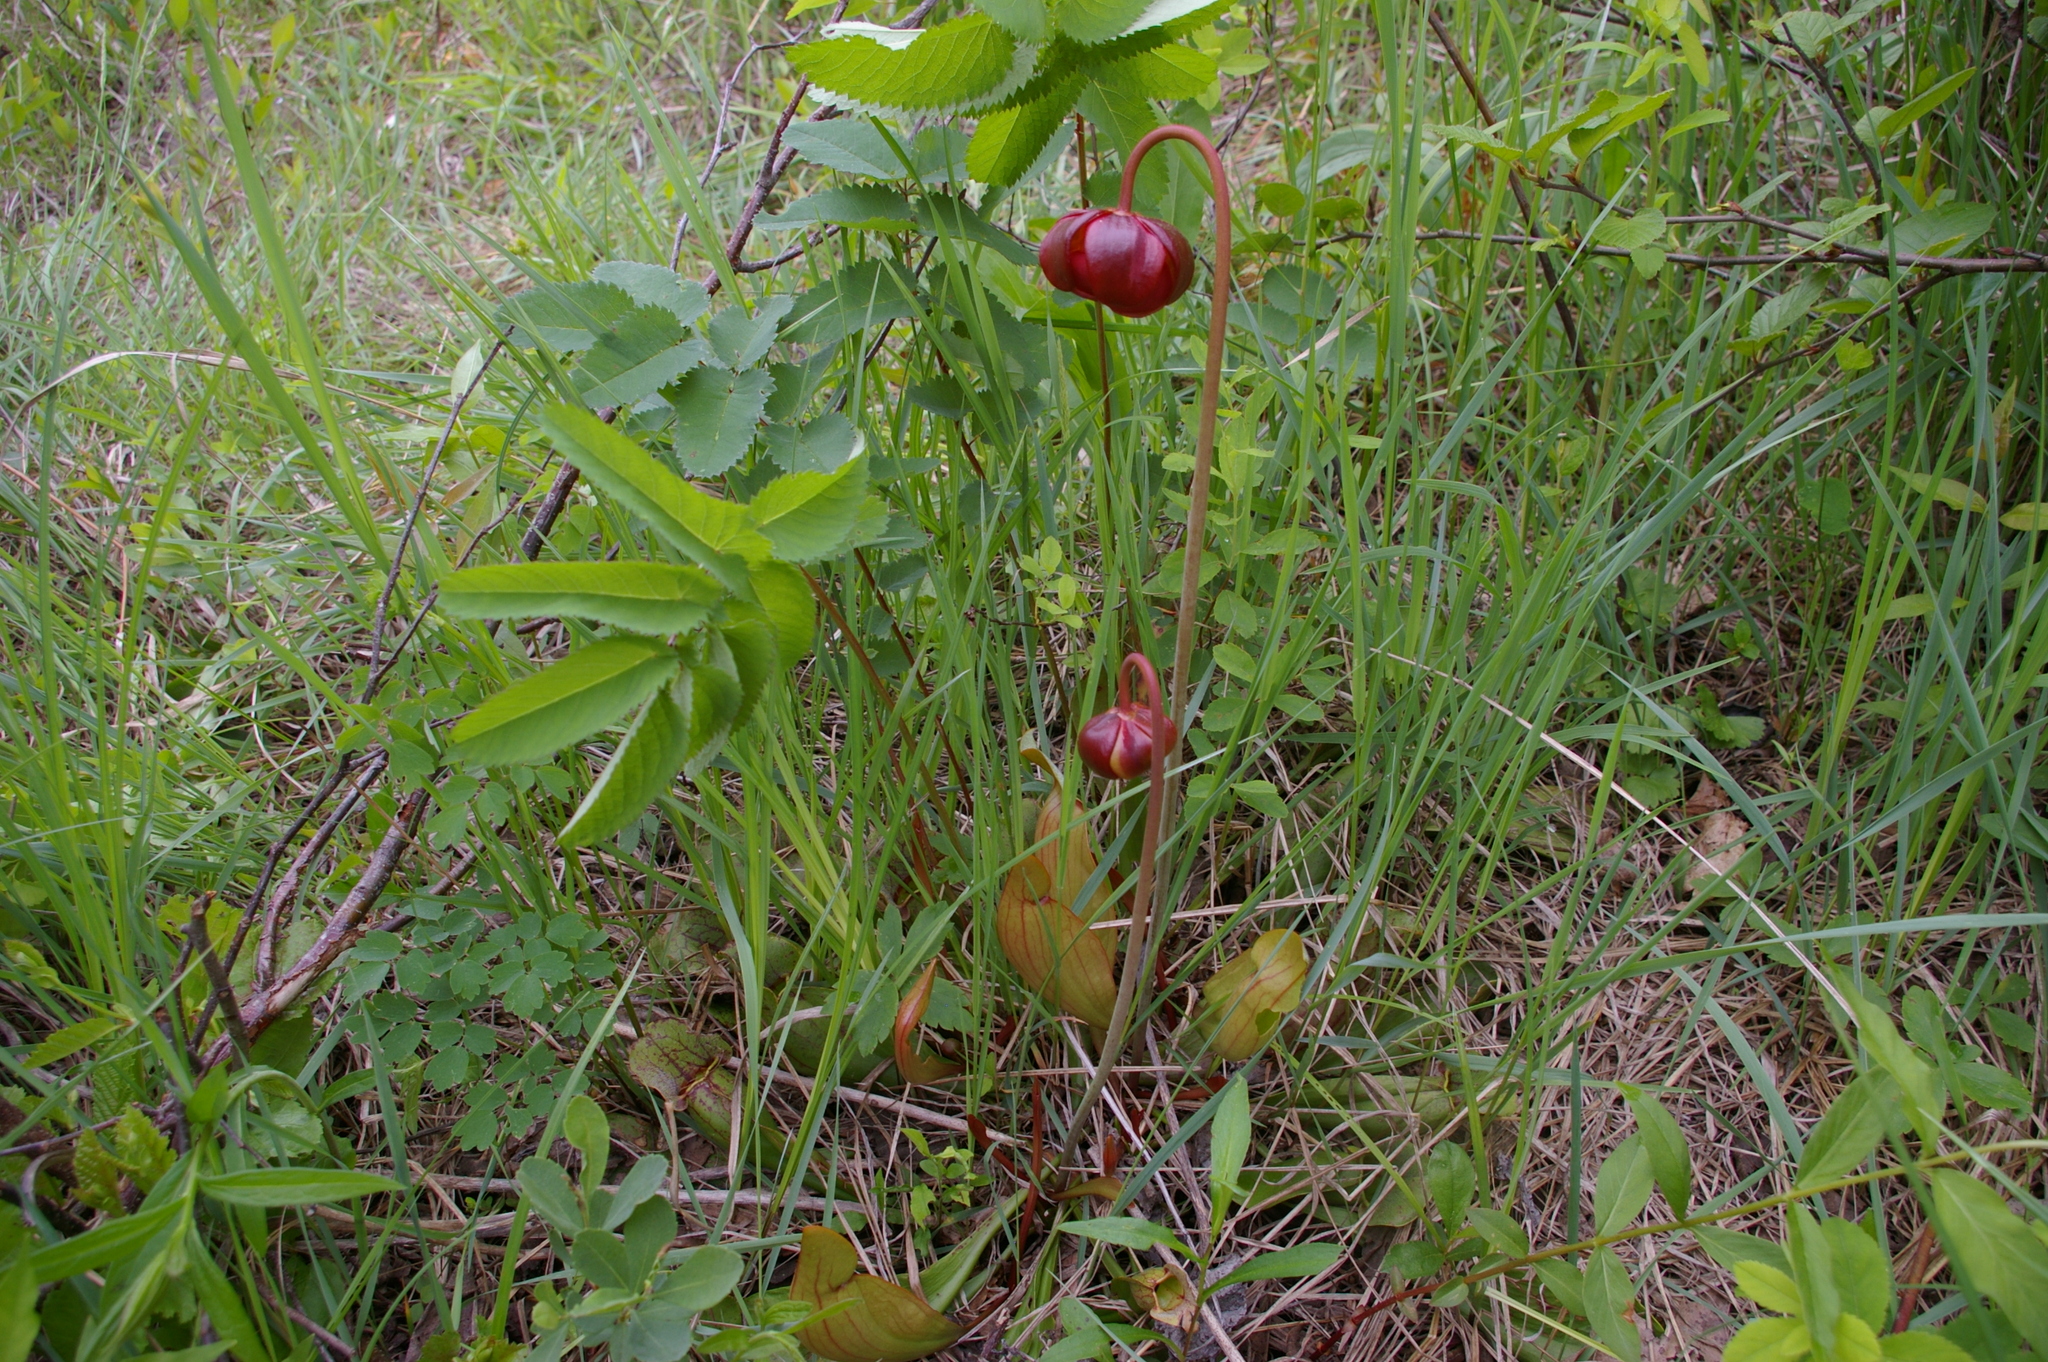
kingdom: Plantae
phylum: Tracheophyta
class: Magnoliopsida
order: Ericales
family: Sarraceniaceae
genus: Sarracenia
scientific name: Sarracenia purpurea
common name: Pitcherplant
